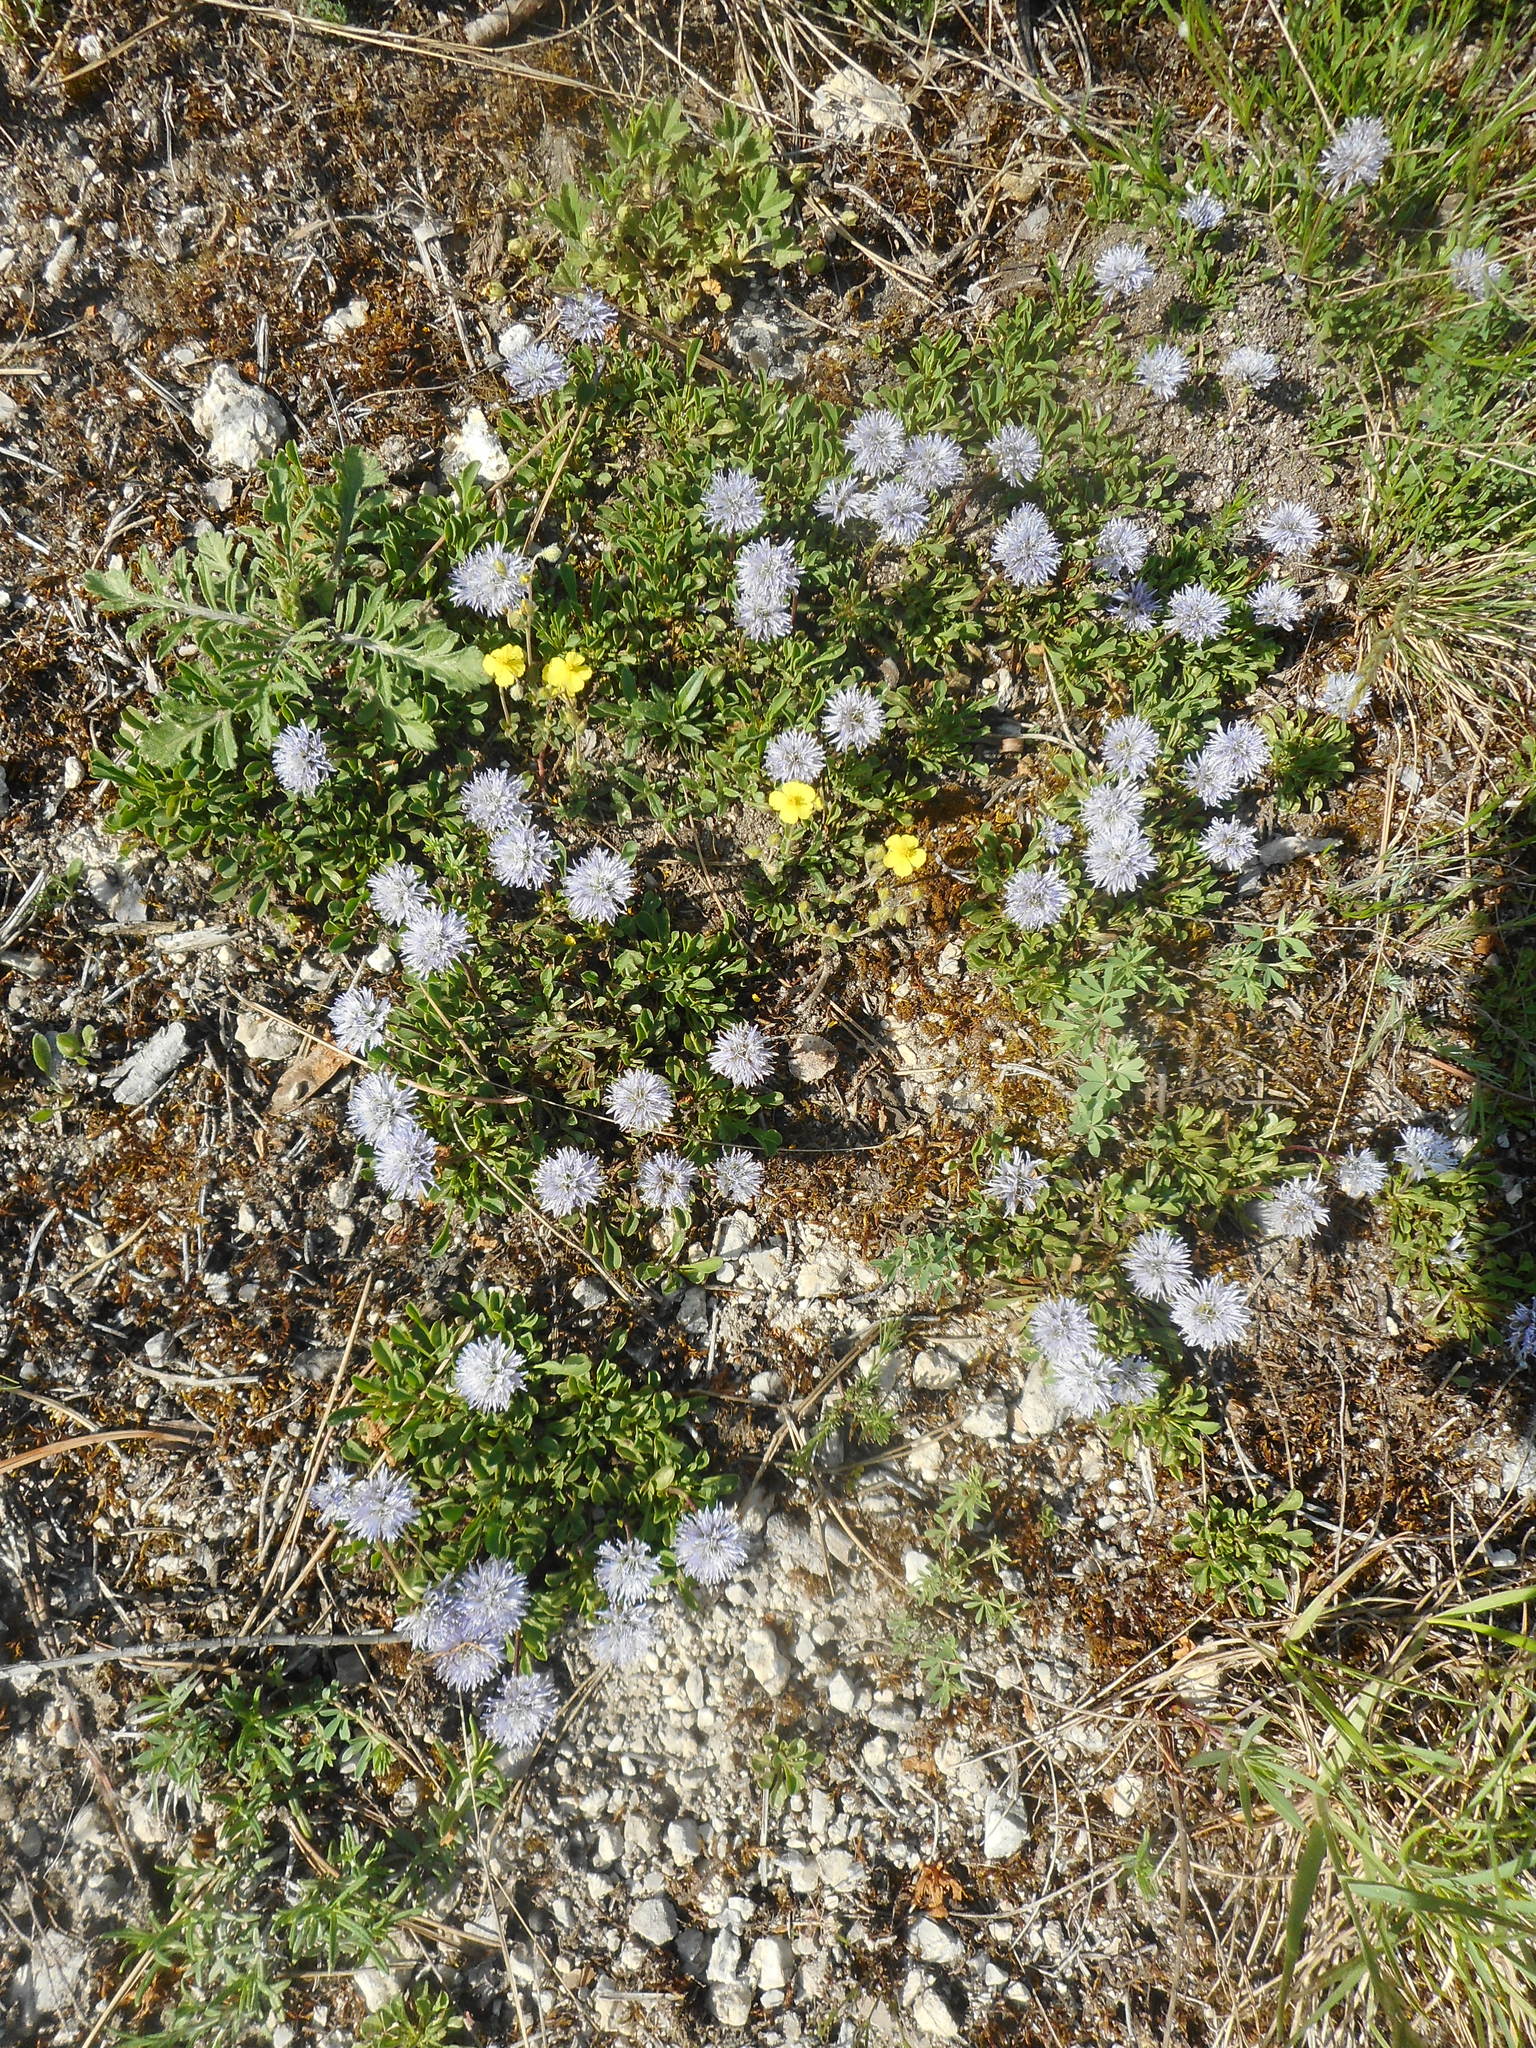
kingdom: Plantae
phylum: Tracheophyta
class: Magnoliopsida
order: Lamiales
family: Plantaginaceae
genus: Globularia
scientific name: Globularia cordifolia
